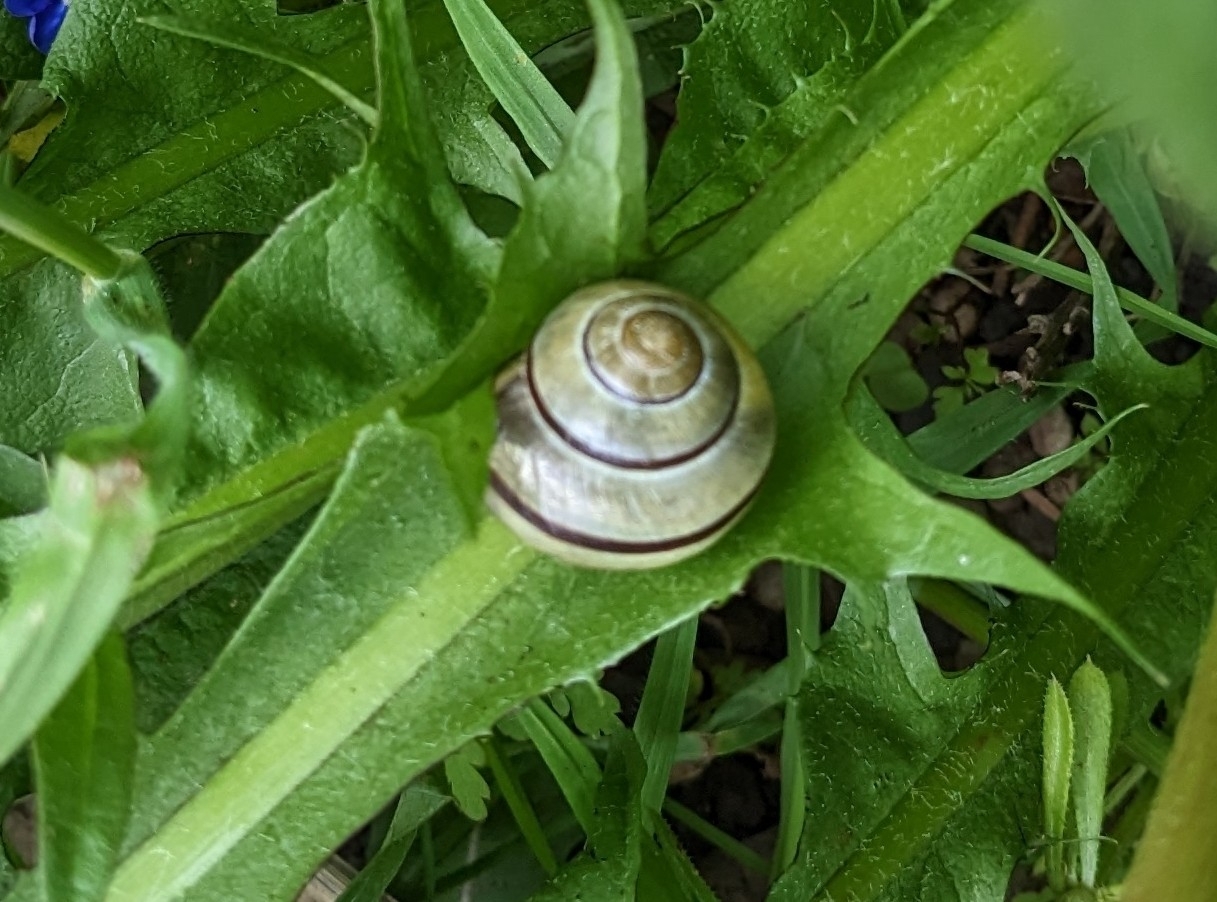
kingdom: Animalia
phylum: Mollusca
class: Gastropoda
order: Stylommatophora
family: Helicidae
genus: Cepaea
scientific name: Cepaea
